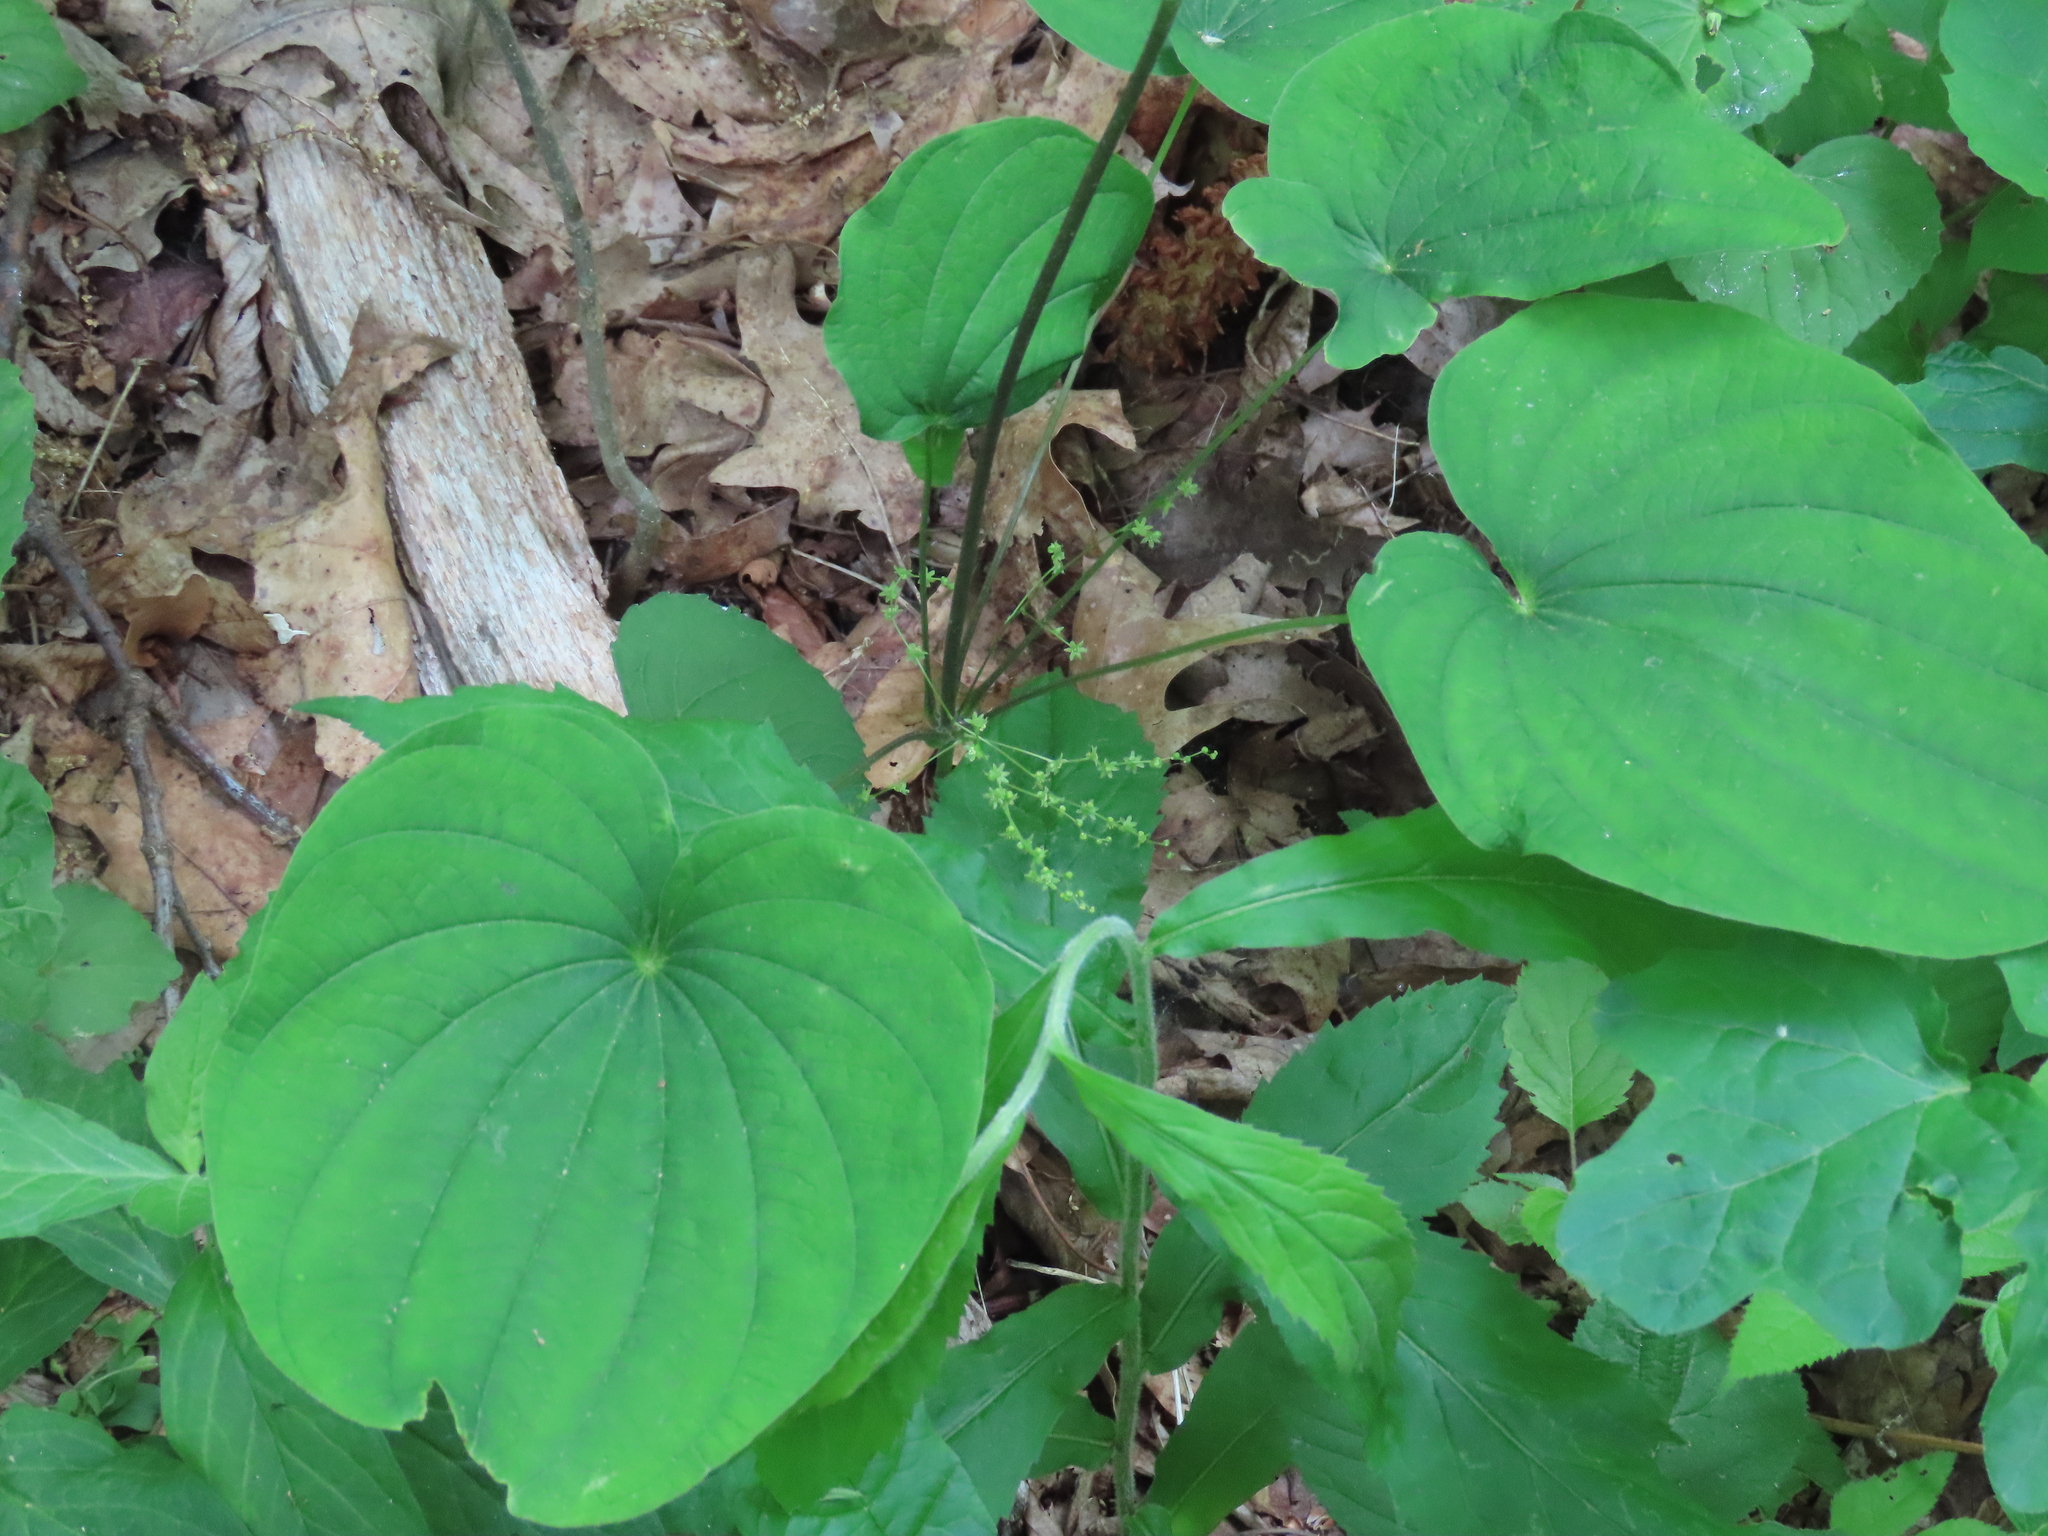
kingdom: Plantae
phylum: Tracheophyta
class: Liliopsida
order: Dioscoreales
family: Dioscoreaceae
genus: Dioscorea
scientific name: Dioscorea villosa
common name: Wild yam
